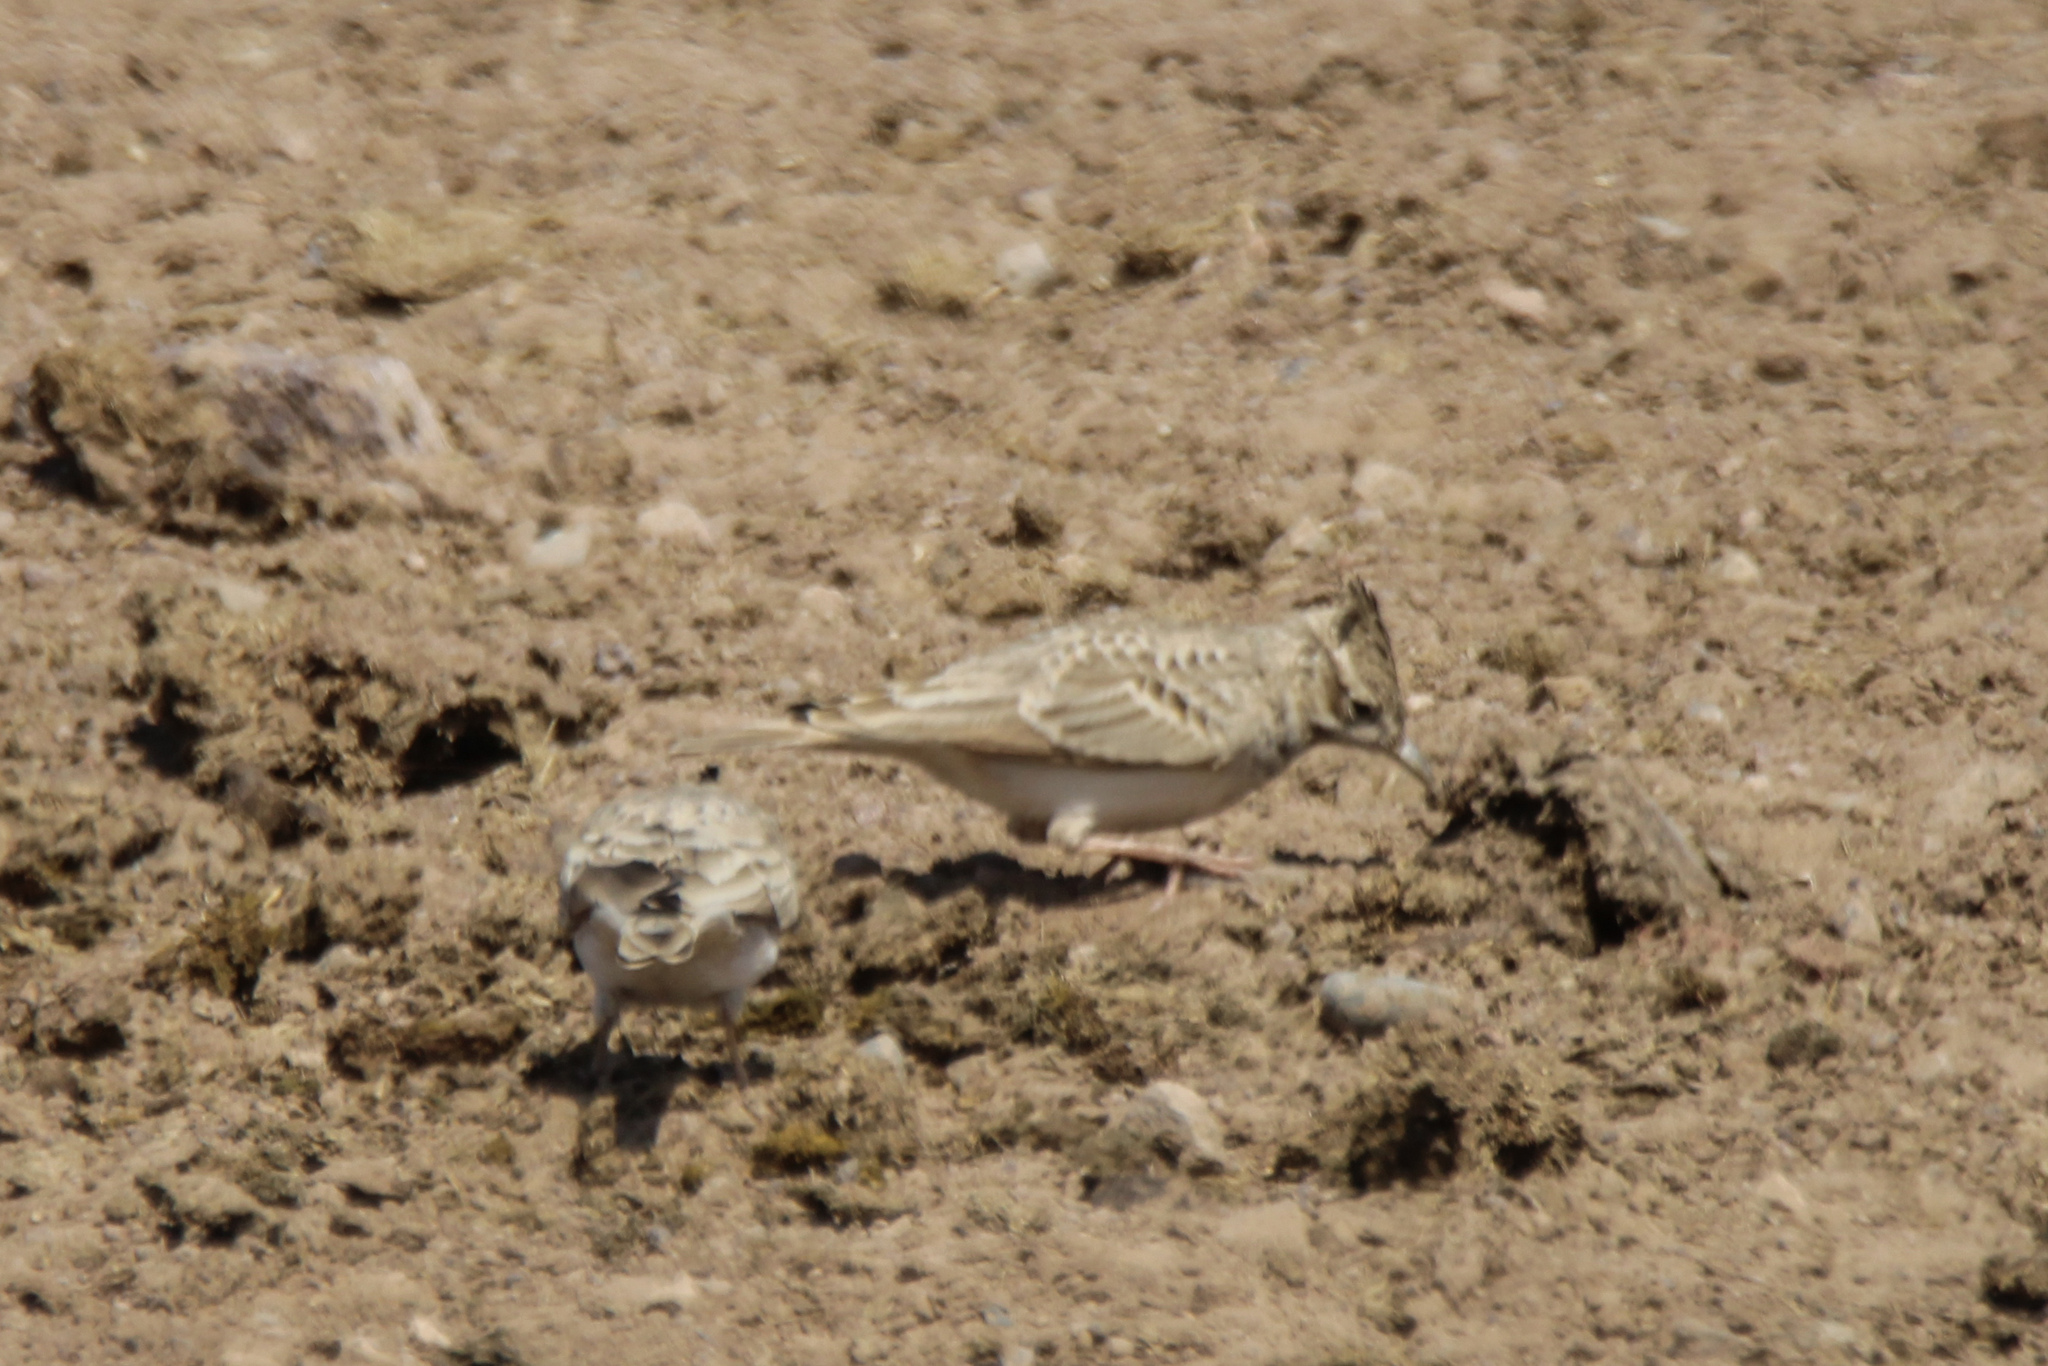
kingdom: Animalia
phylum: Chordata
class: Aves
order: Passeriformes
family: Alaudidae
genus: Galerida
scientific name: Galerida cristata
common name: Crested lark
